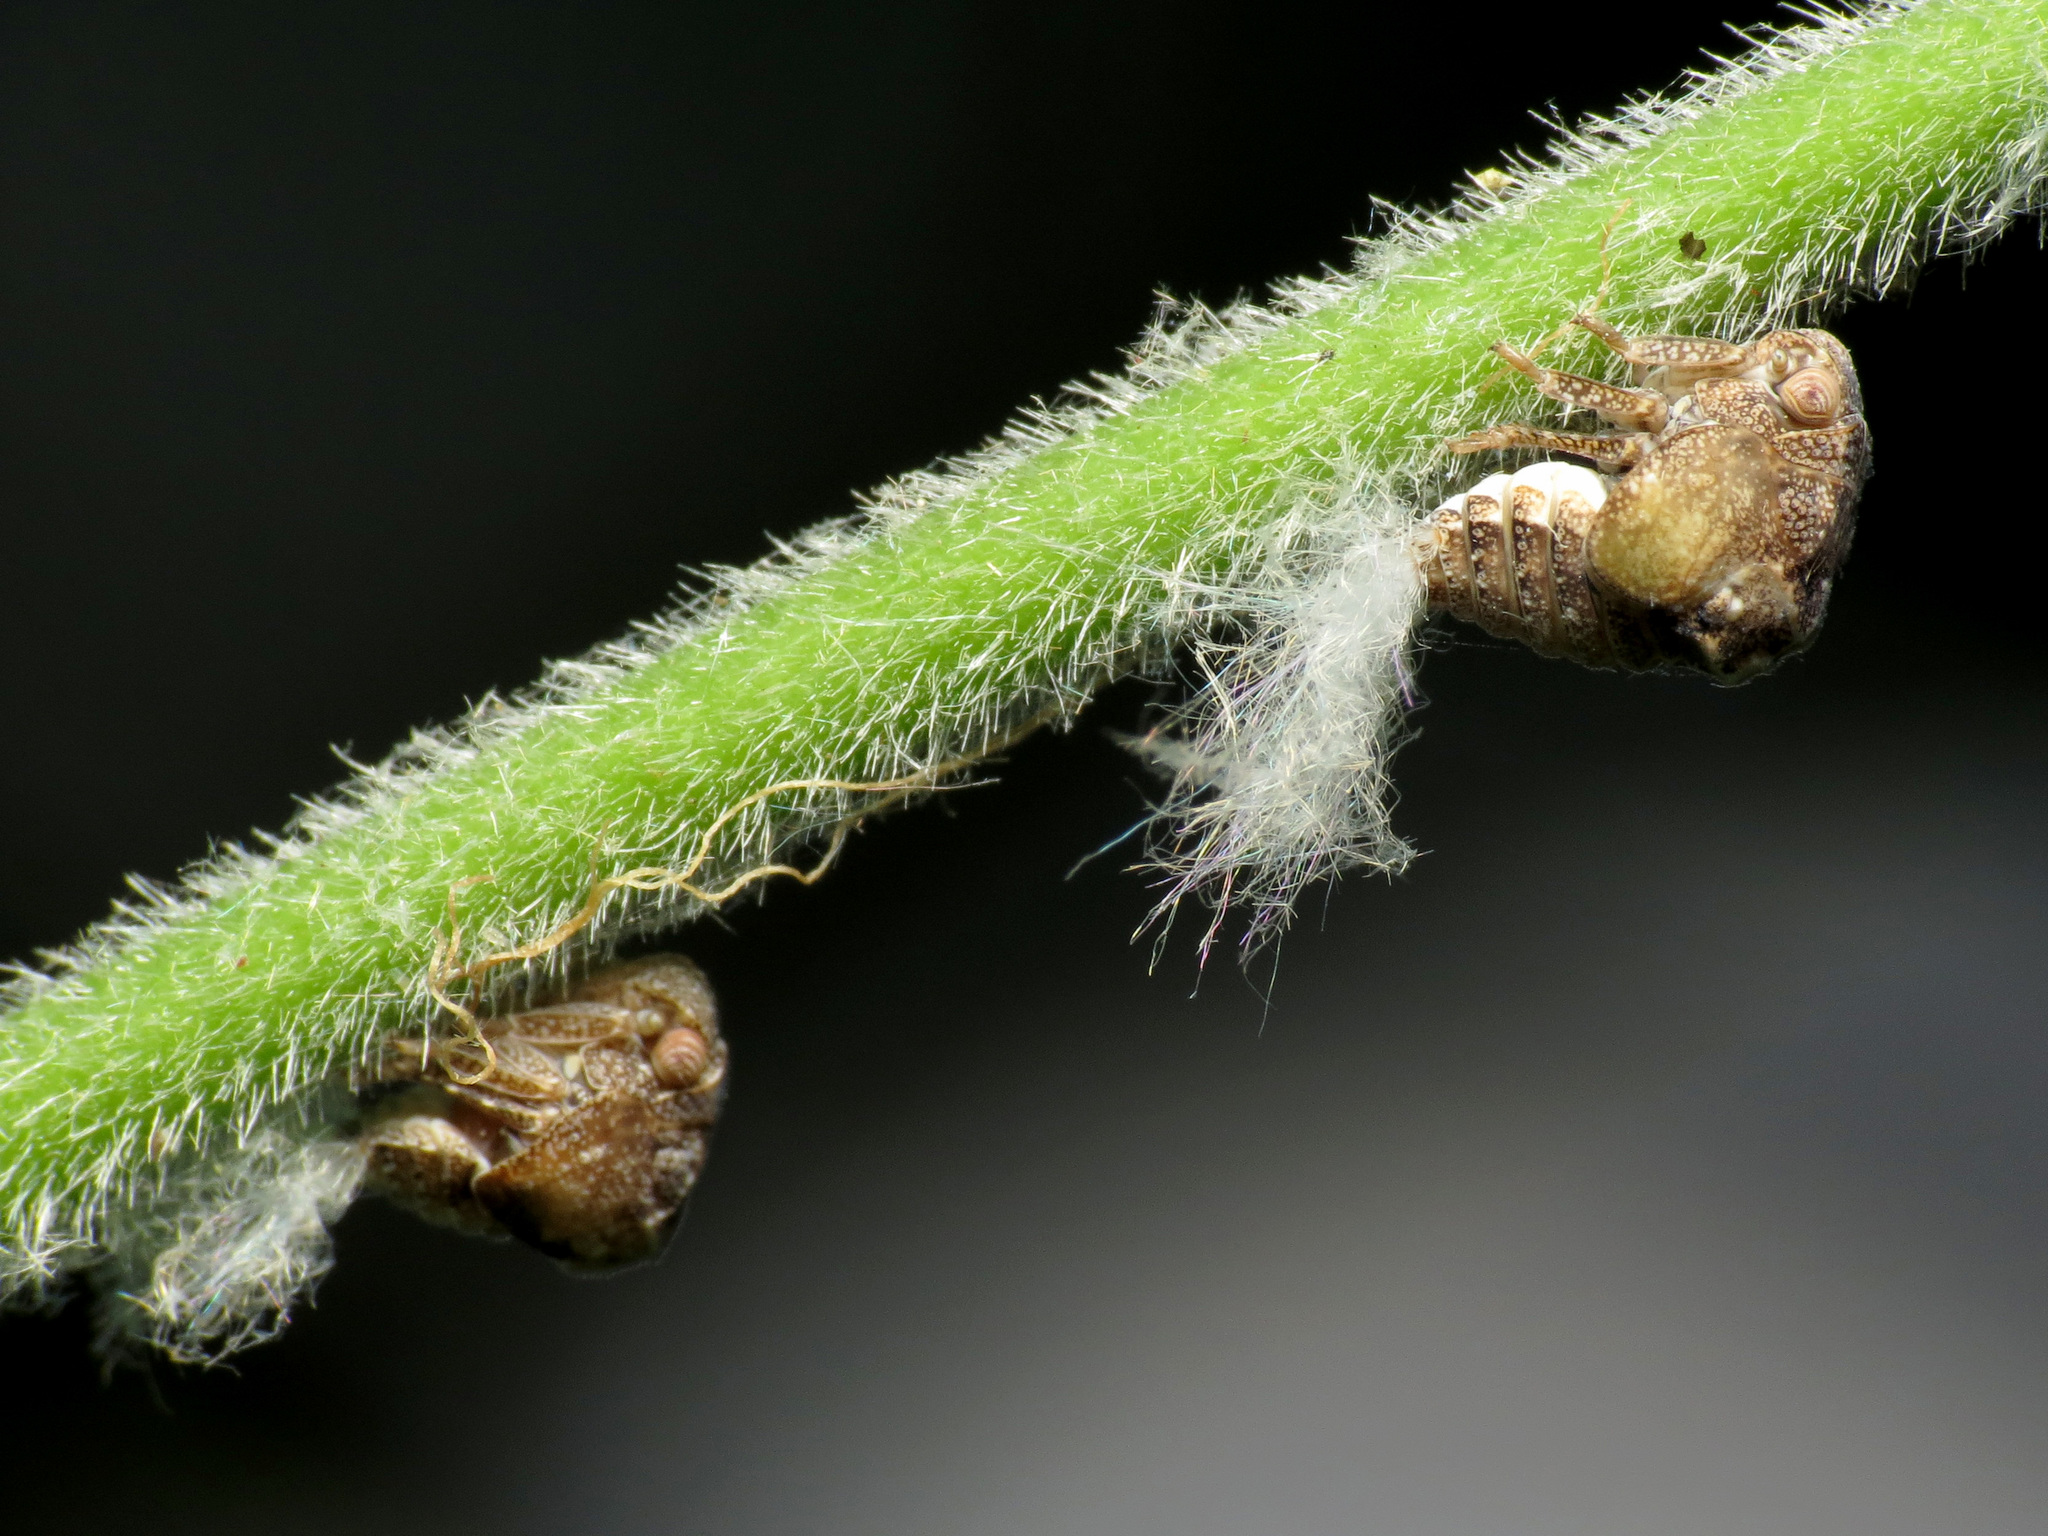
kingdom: Animalia
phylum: Arthropoda
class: Insecta
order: Hemiptera
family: Acanaloniidae
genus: Acanalonia
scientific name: Acanalonia conica
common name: Green cone-headed planthopper
